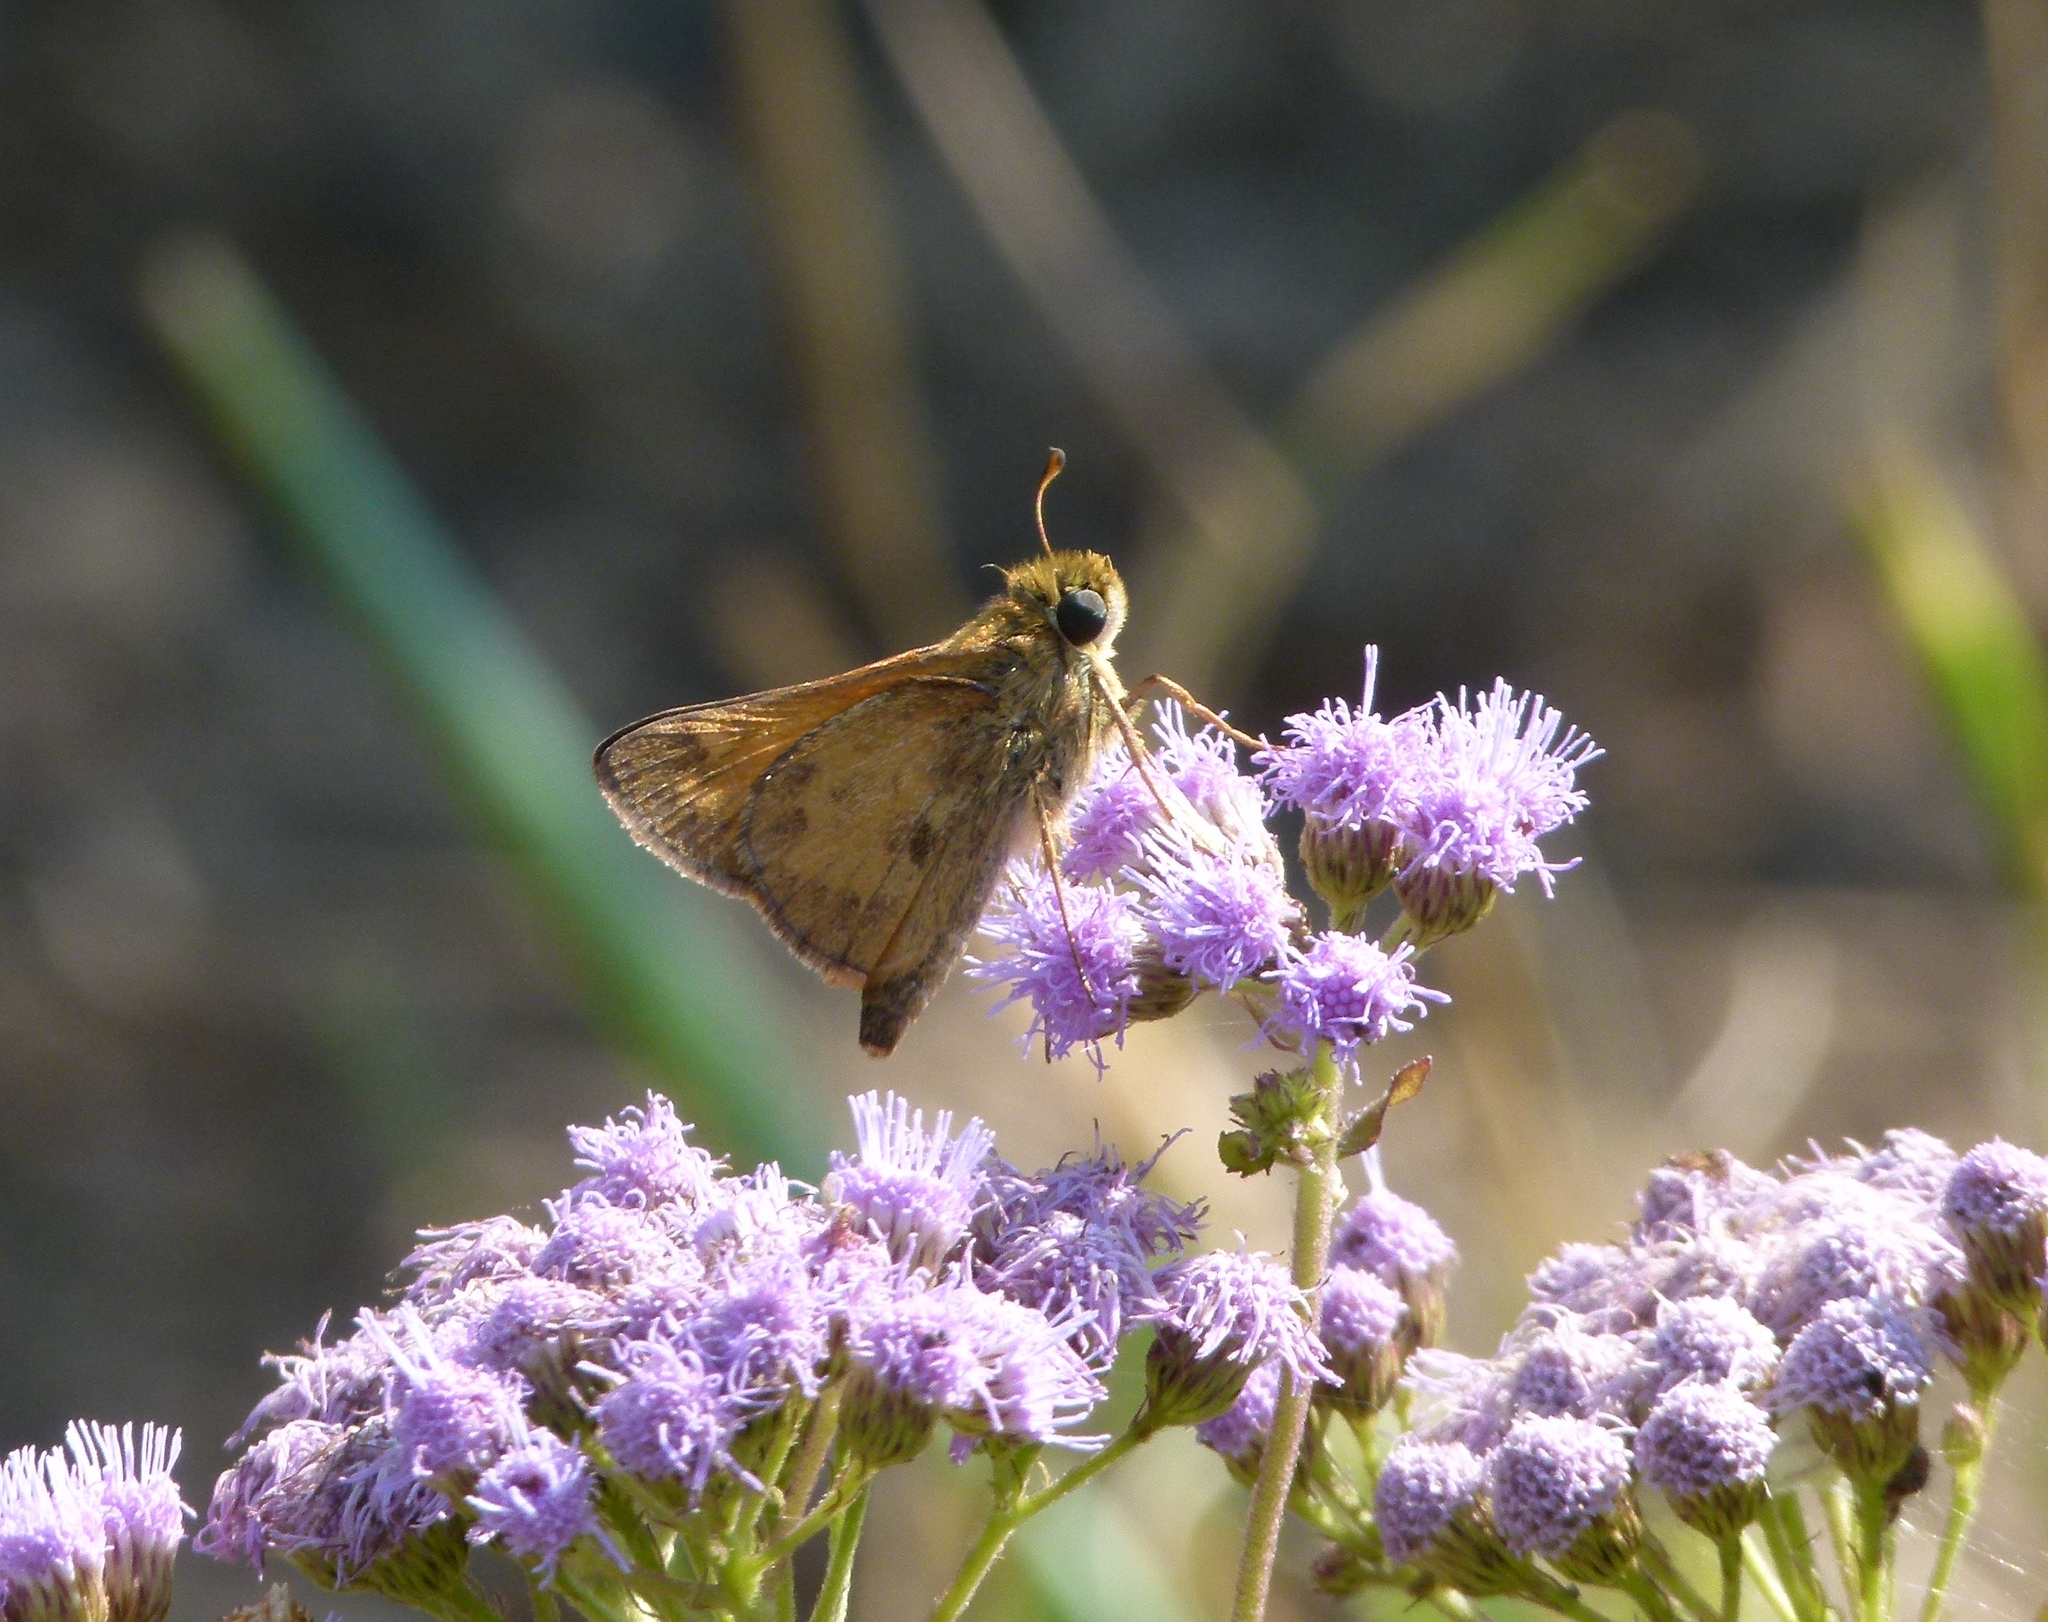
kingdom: Animalia
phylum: Arthropoda
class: Insecta
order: Lepidoptera
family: Hesperiidae
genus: Atalopedes
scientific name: Atalopedes
